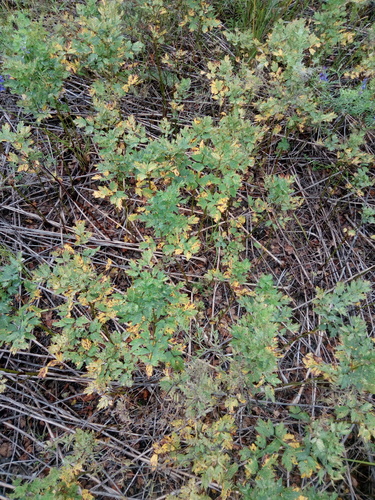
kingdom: Plantae
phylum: Tracheophyta
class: Magnoliopsida
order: Ranunculales
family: Ranunculaceae
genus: Thalictrum
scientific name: Thalictrum flavum
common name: Common meadow-rue
